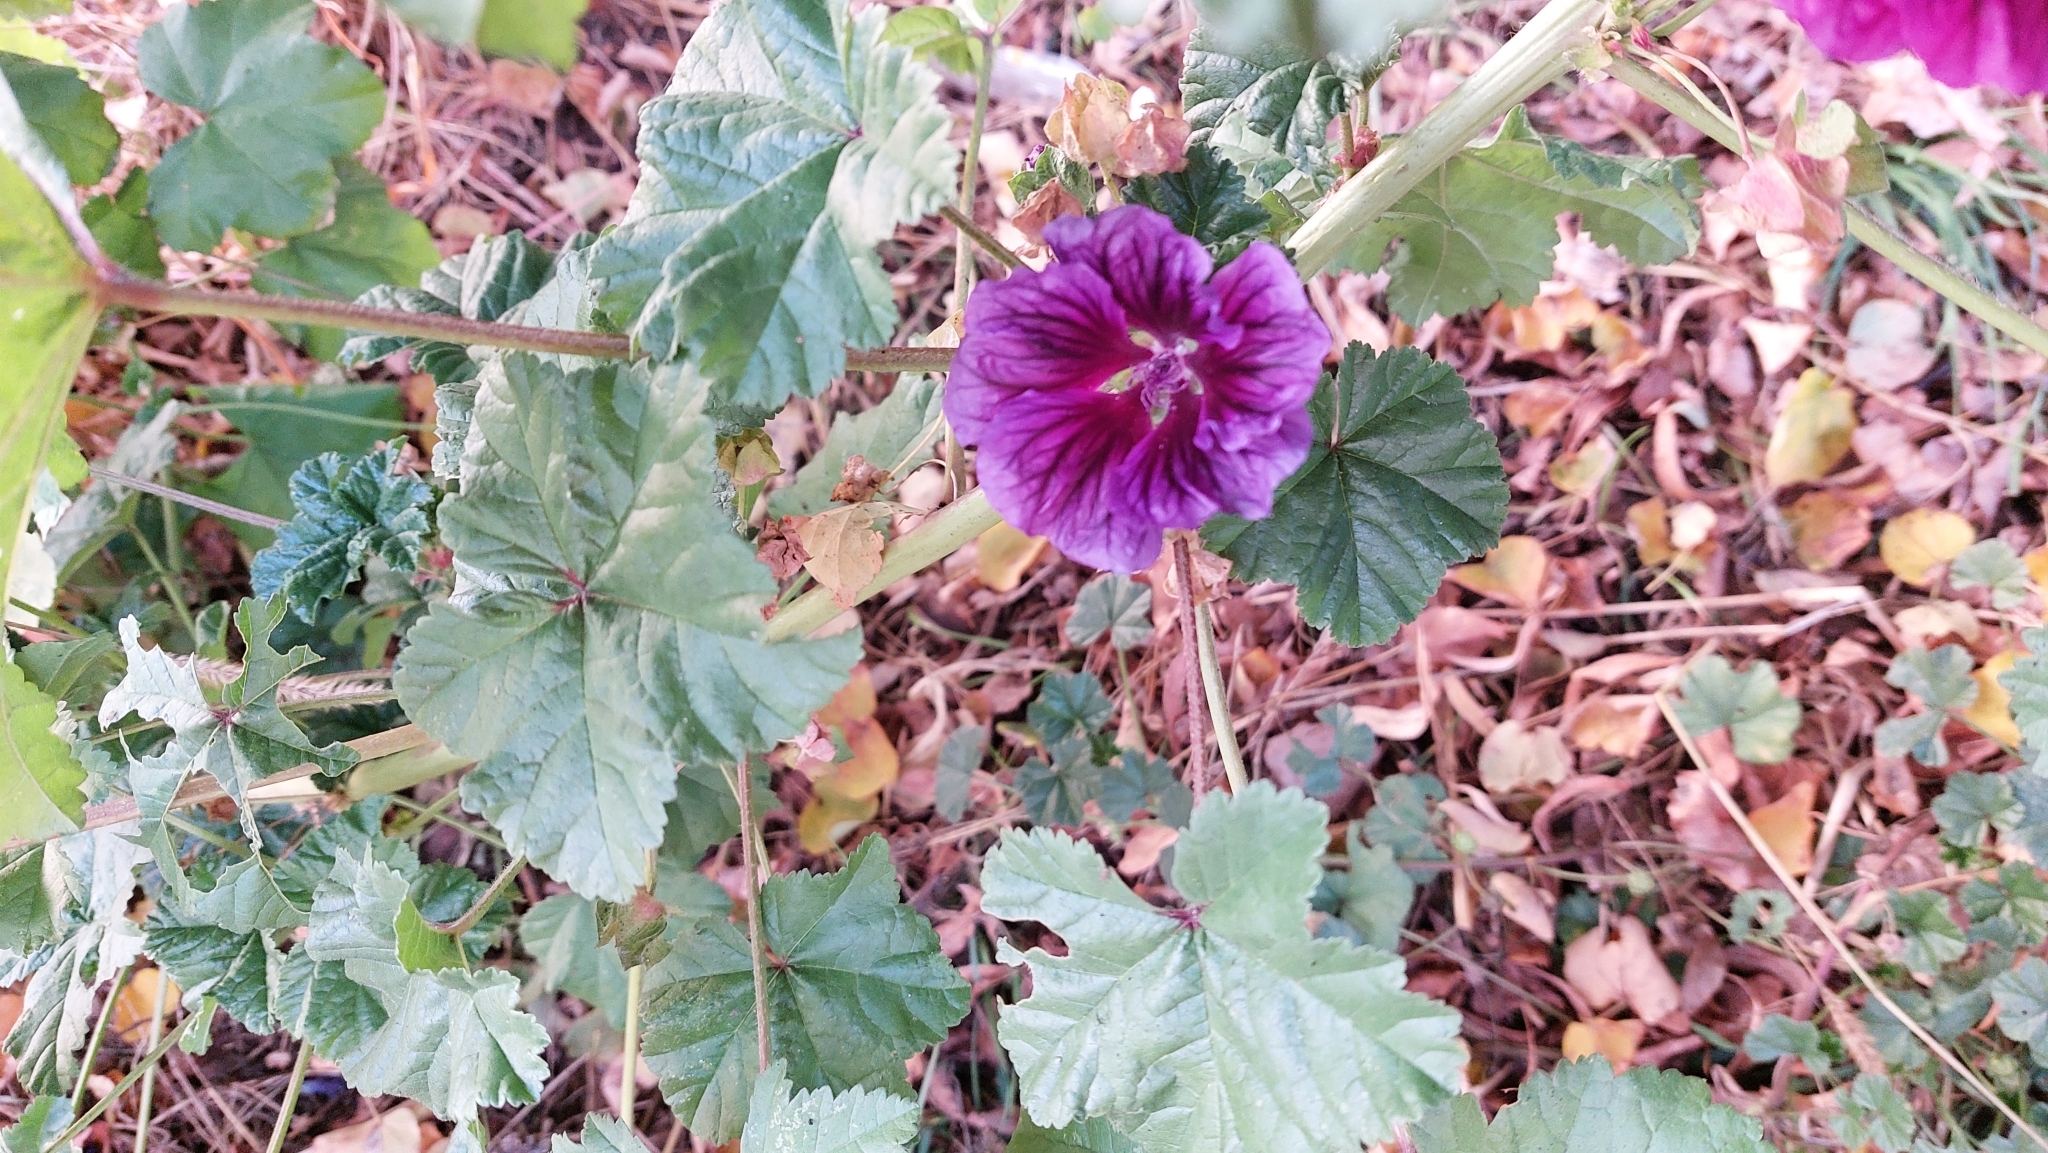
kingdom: Plantae
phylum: Tracheophyta
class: Magnoliopsida
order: Malvales
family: Malvaceae
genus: Malva
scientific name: Malva sylvestris
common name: Common mallow
